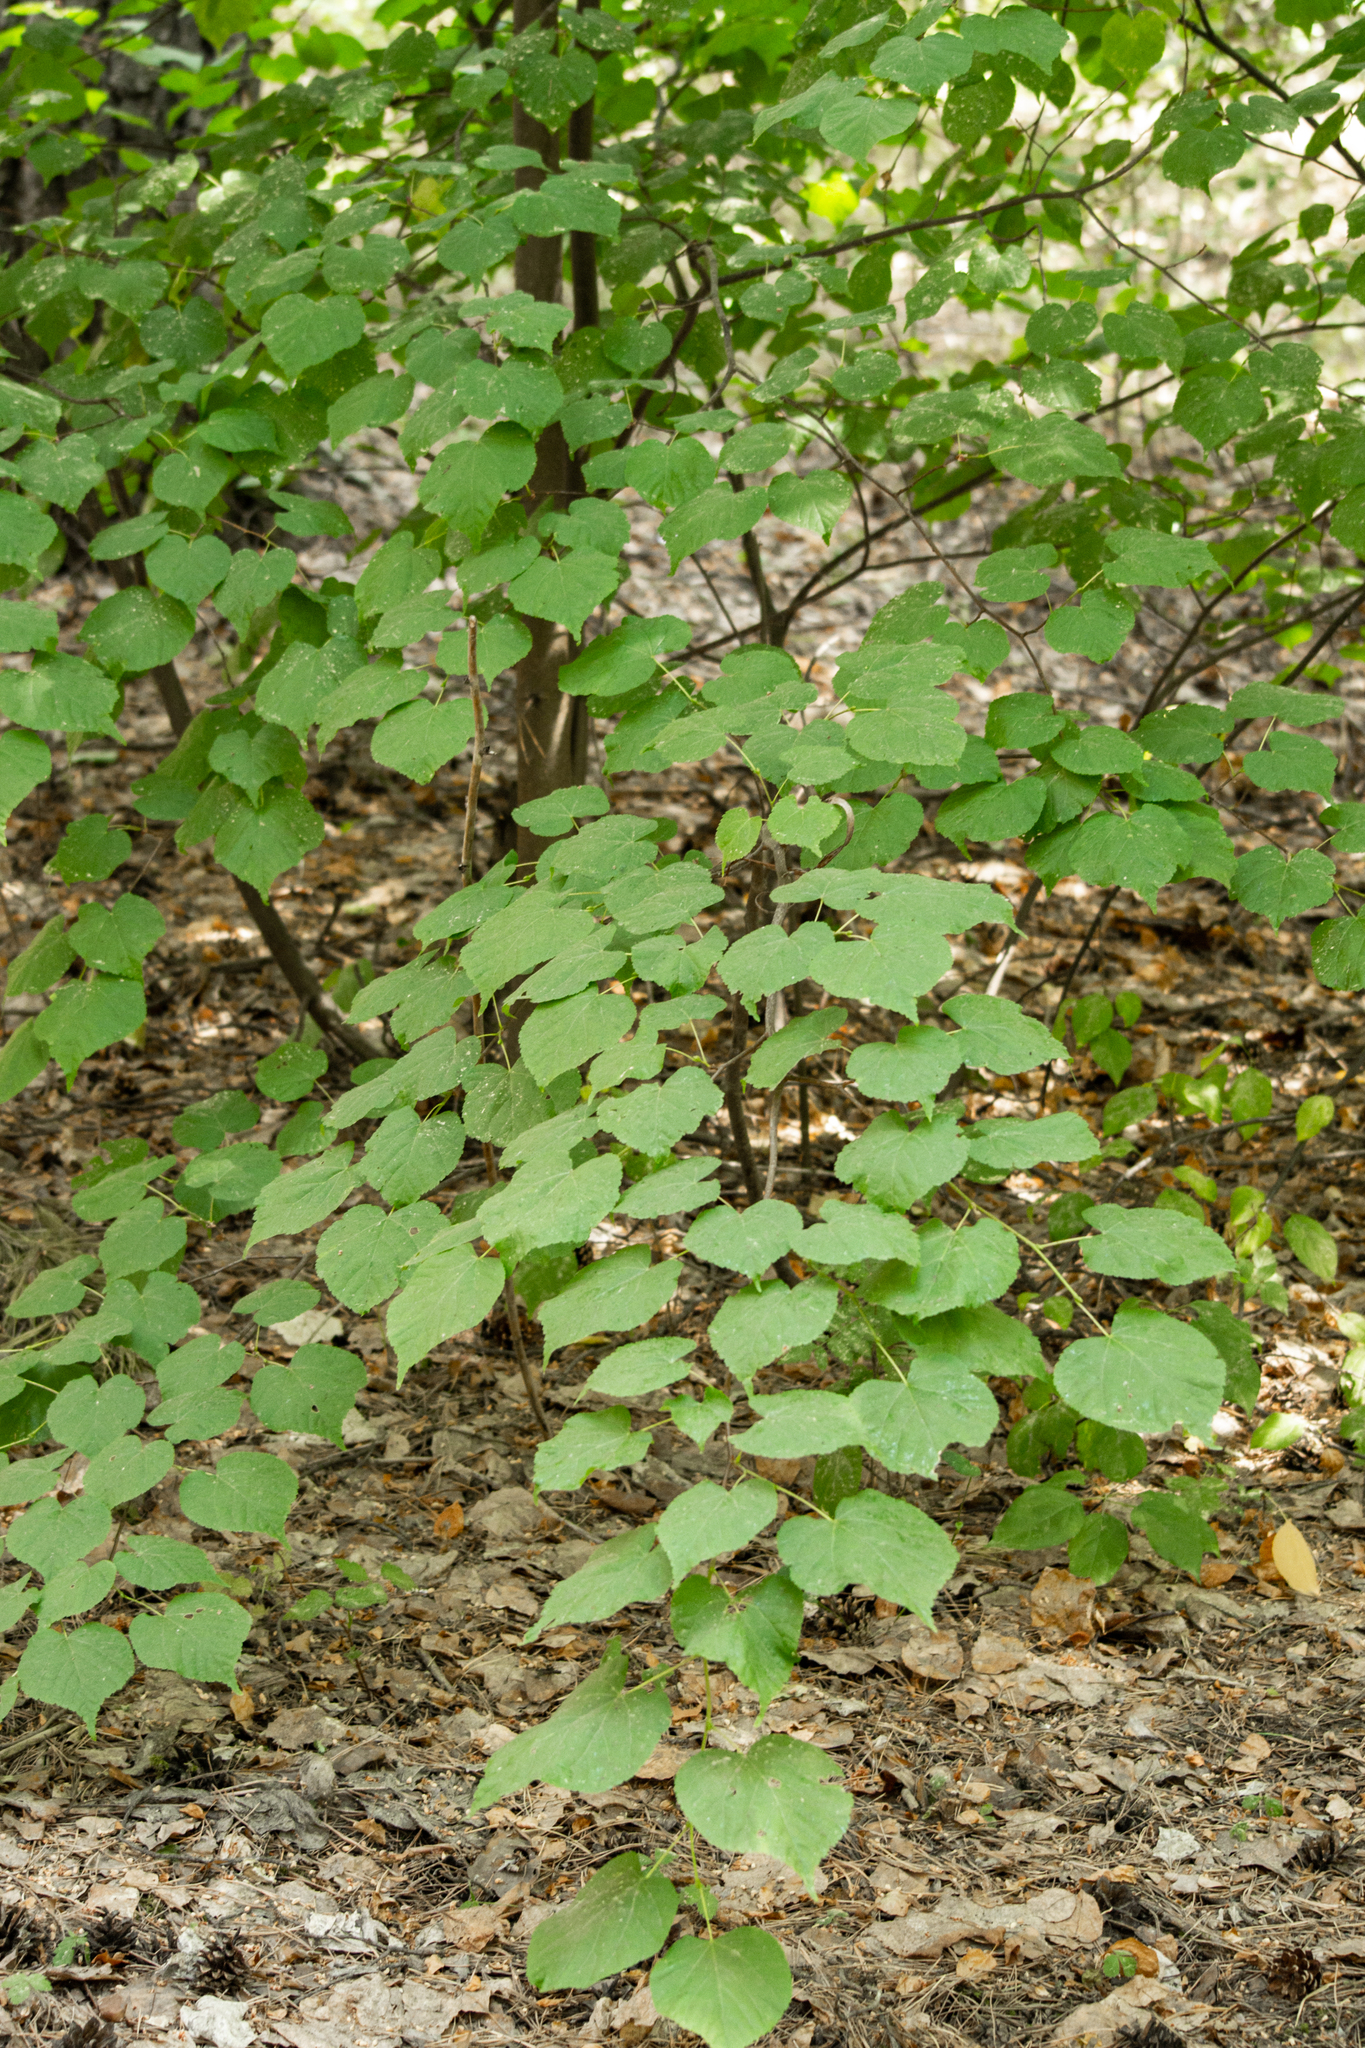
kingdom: Plantae
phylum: Tracheophyta
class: Magnoliopsida
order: Malvales
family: Malvaceae
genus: Tilia
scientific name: Tilia cordata
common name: Small-leaved lime
